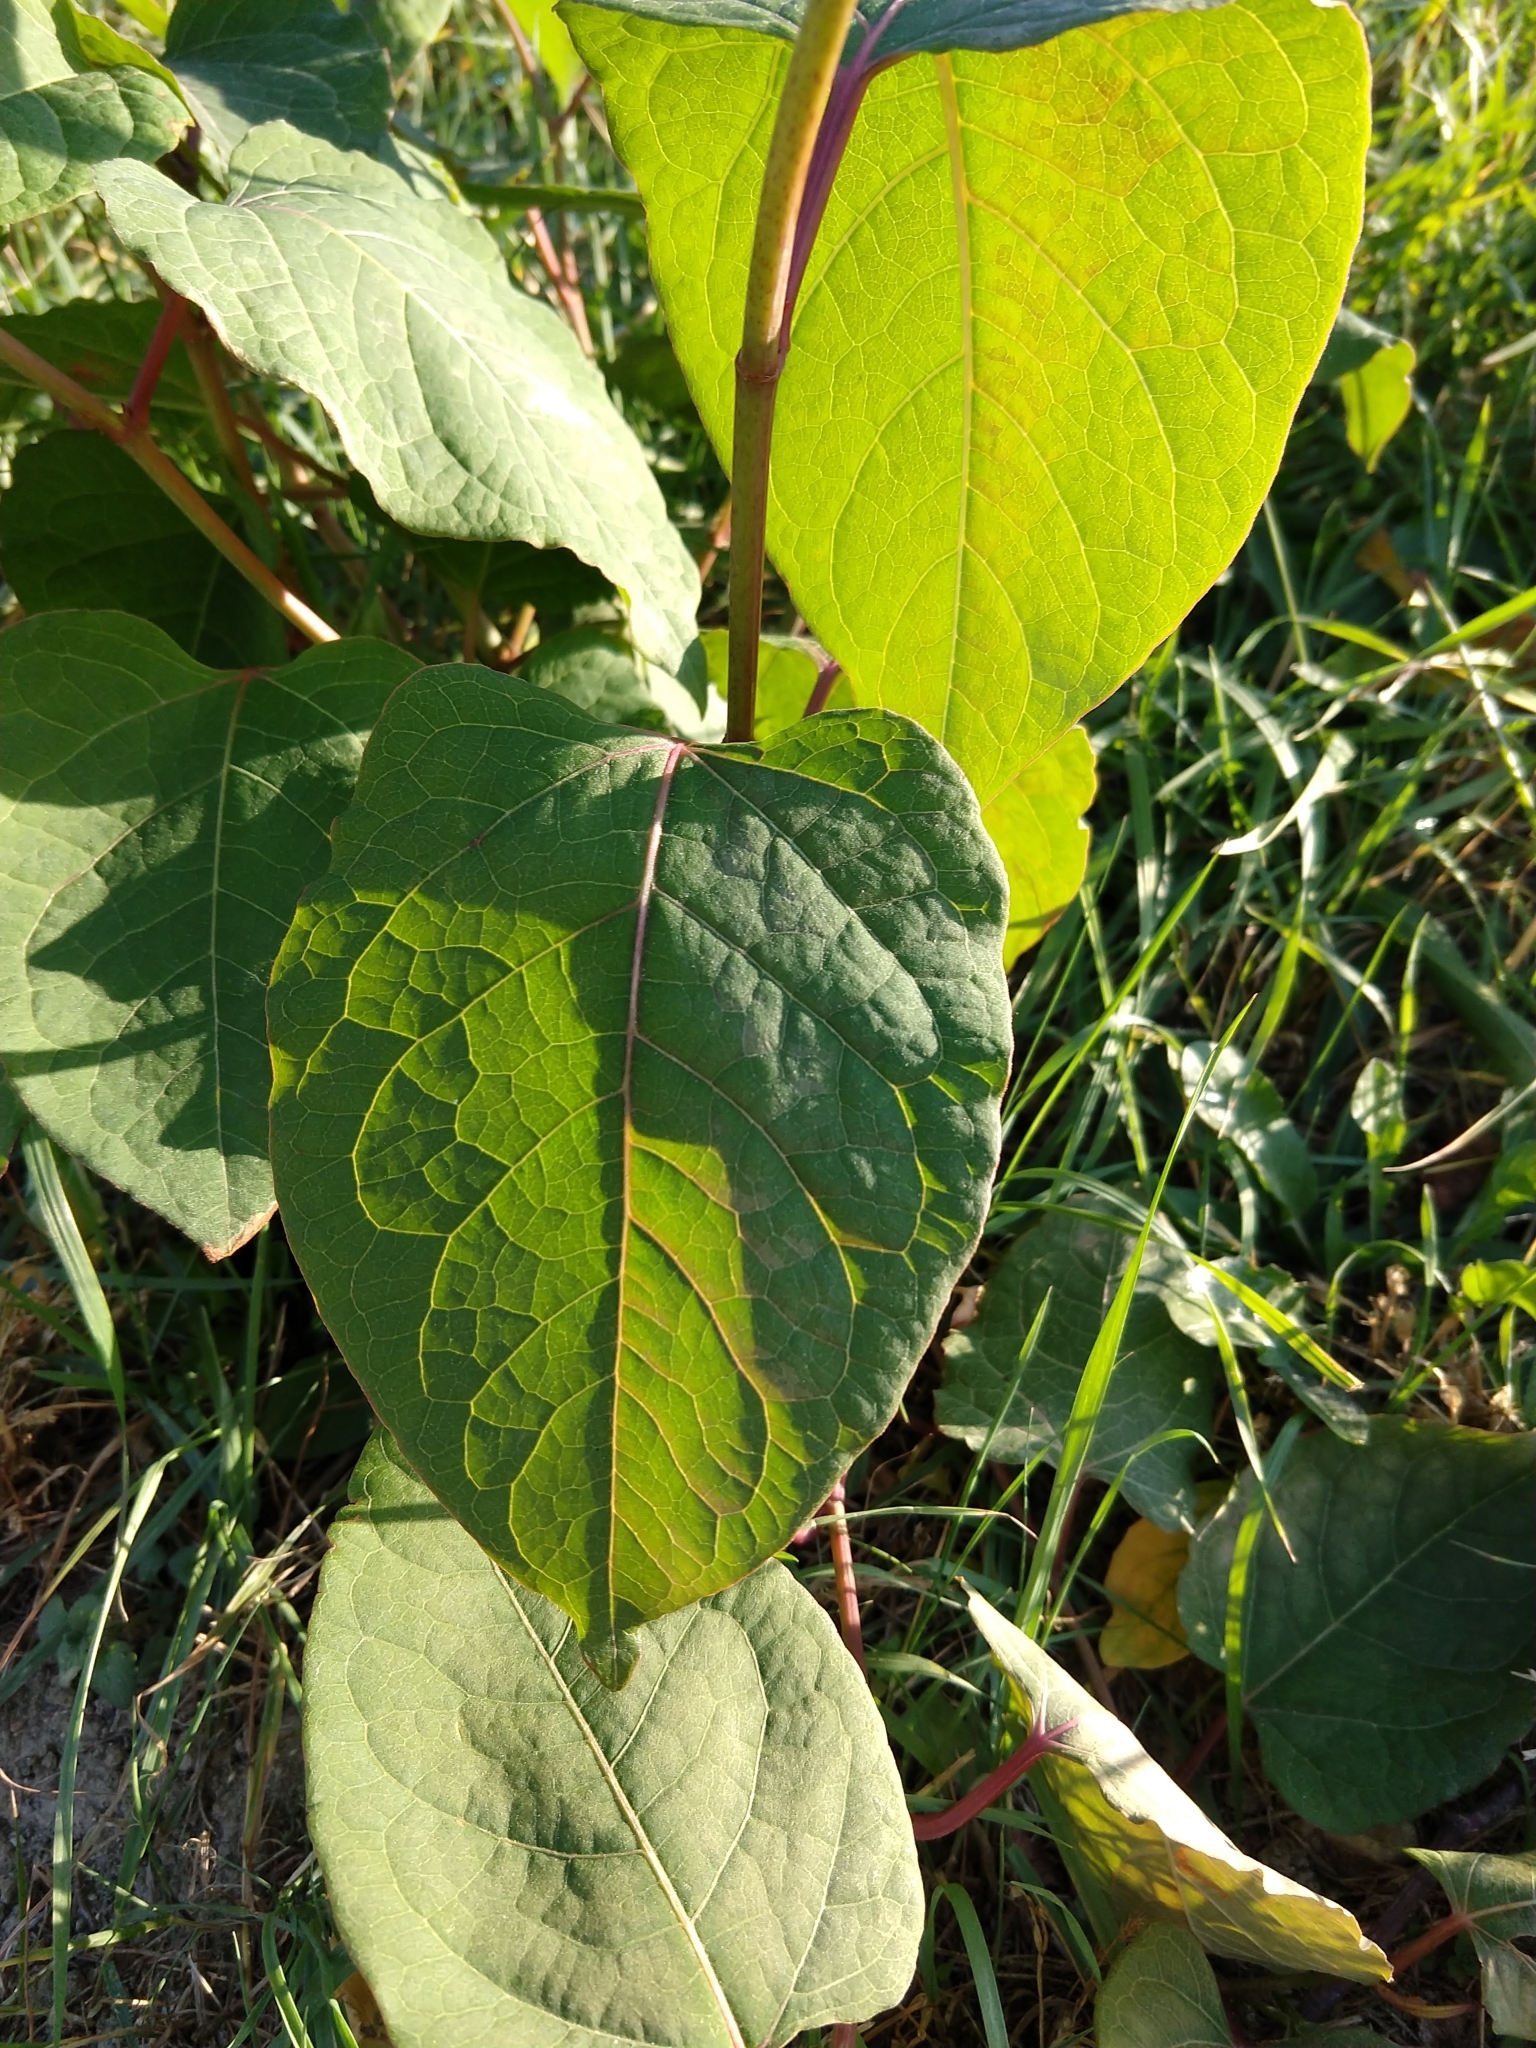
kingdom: Plantae
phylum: Tracheophyta
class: Magnoliopsida
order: Caryophyllales
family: Polygonaceae
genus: Reynoutria
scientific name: Reynoutria bohemica
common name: Bohemian knotweed
